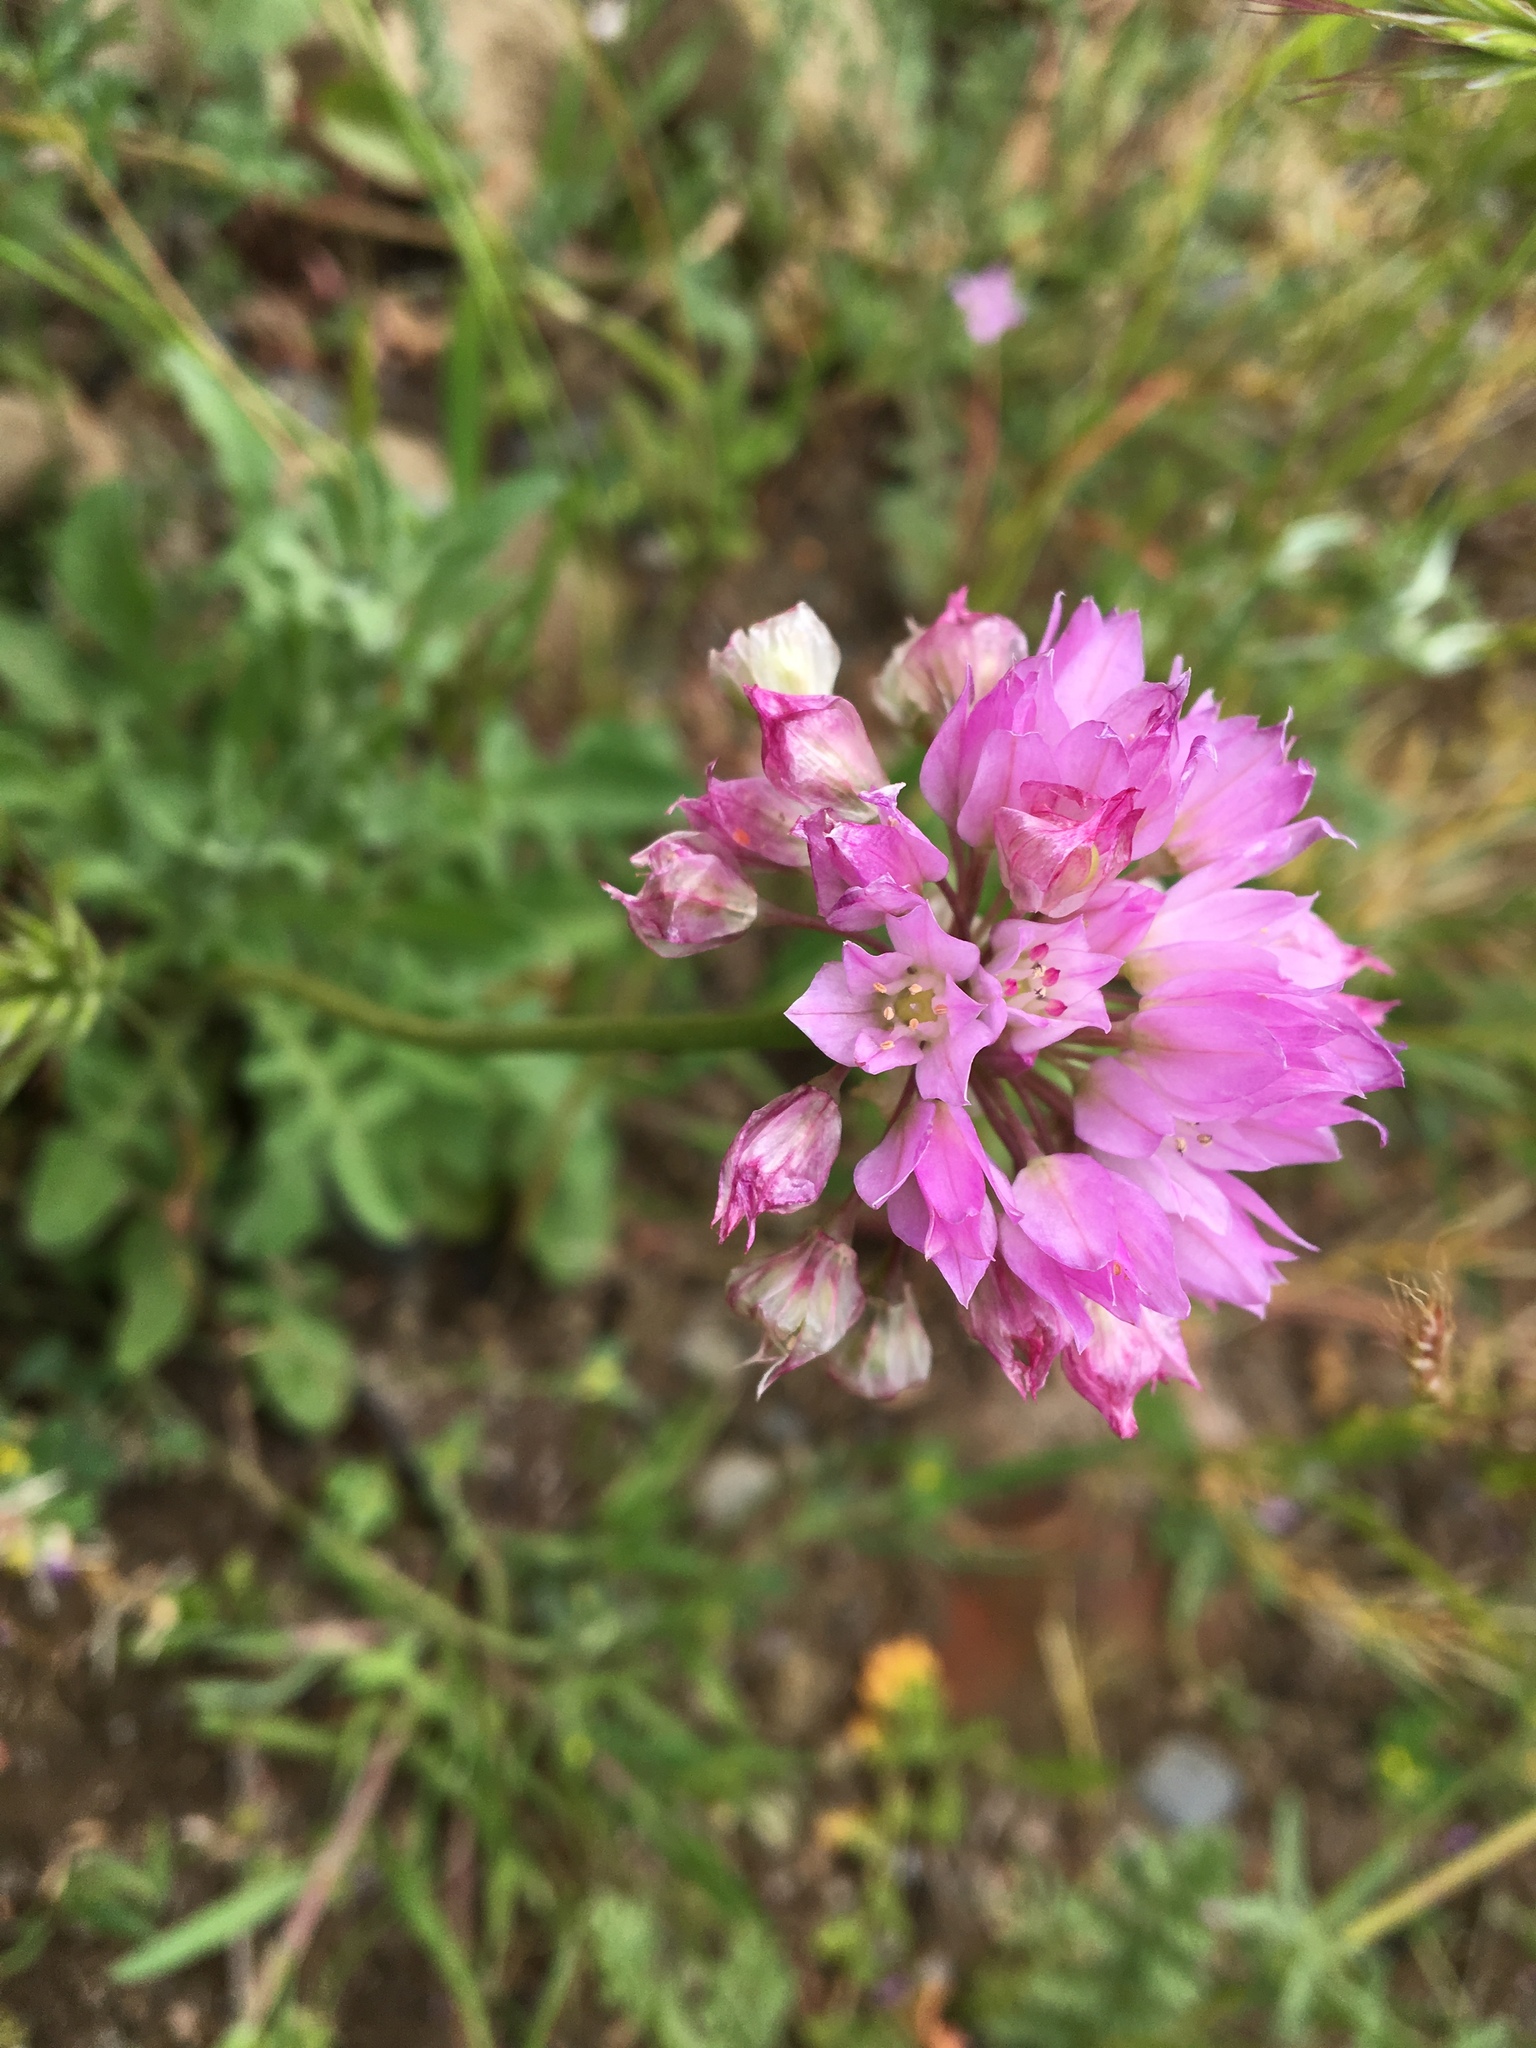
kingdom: Plantae
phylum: Tracheophyta
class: Liliopsida
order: Asparagales
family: Amaryllidaceae
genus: Allium
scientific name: Allium serra
